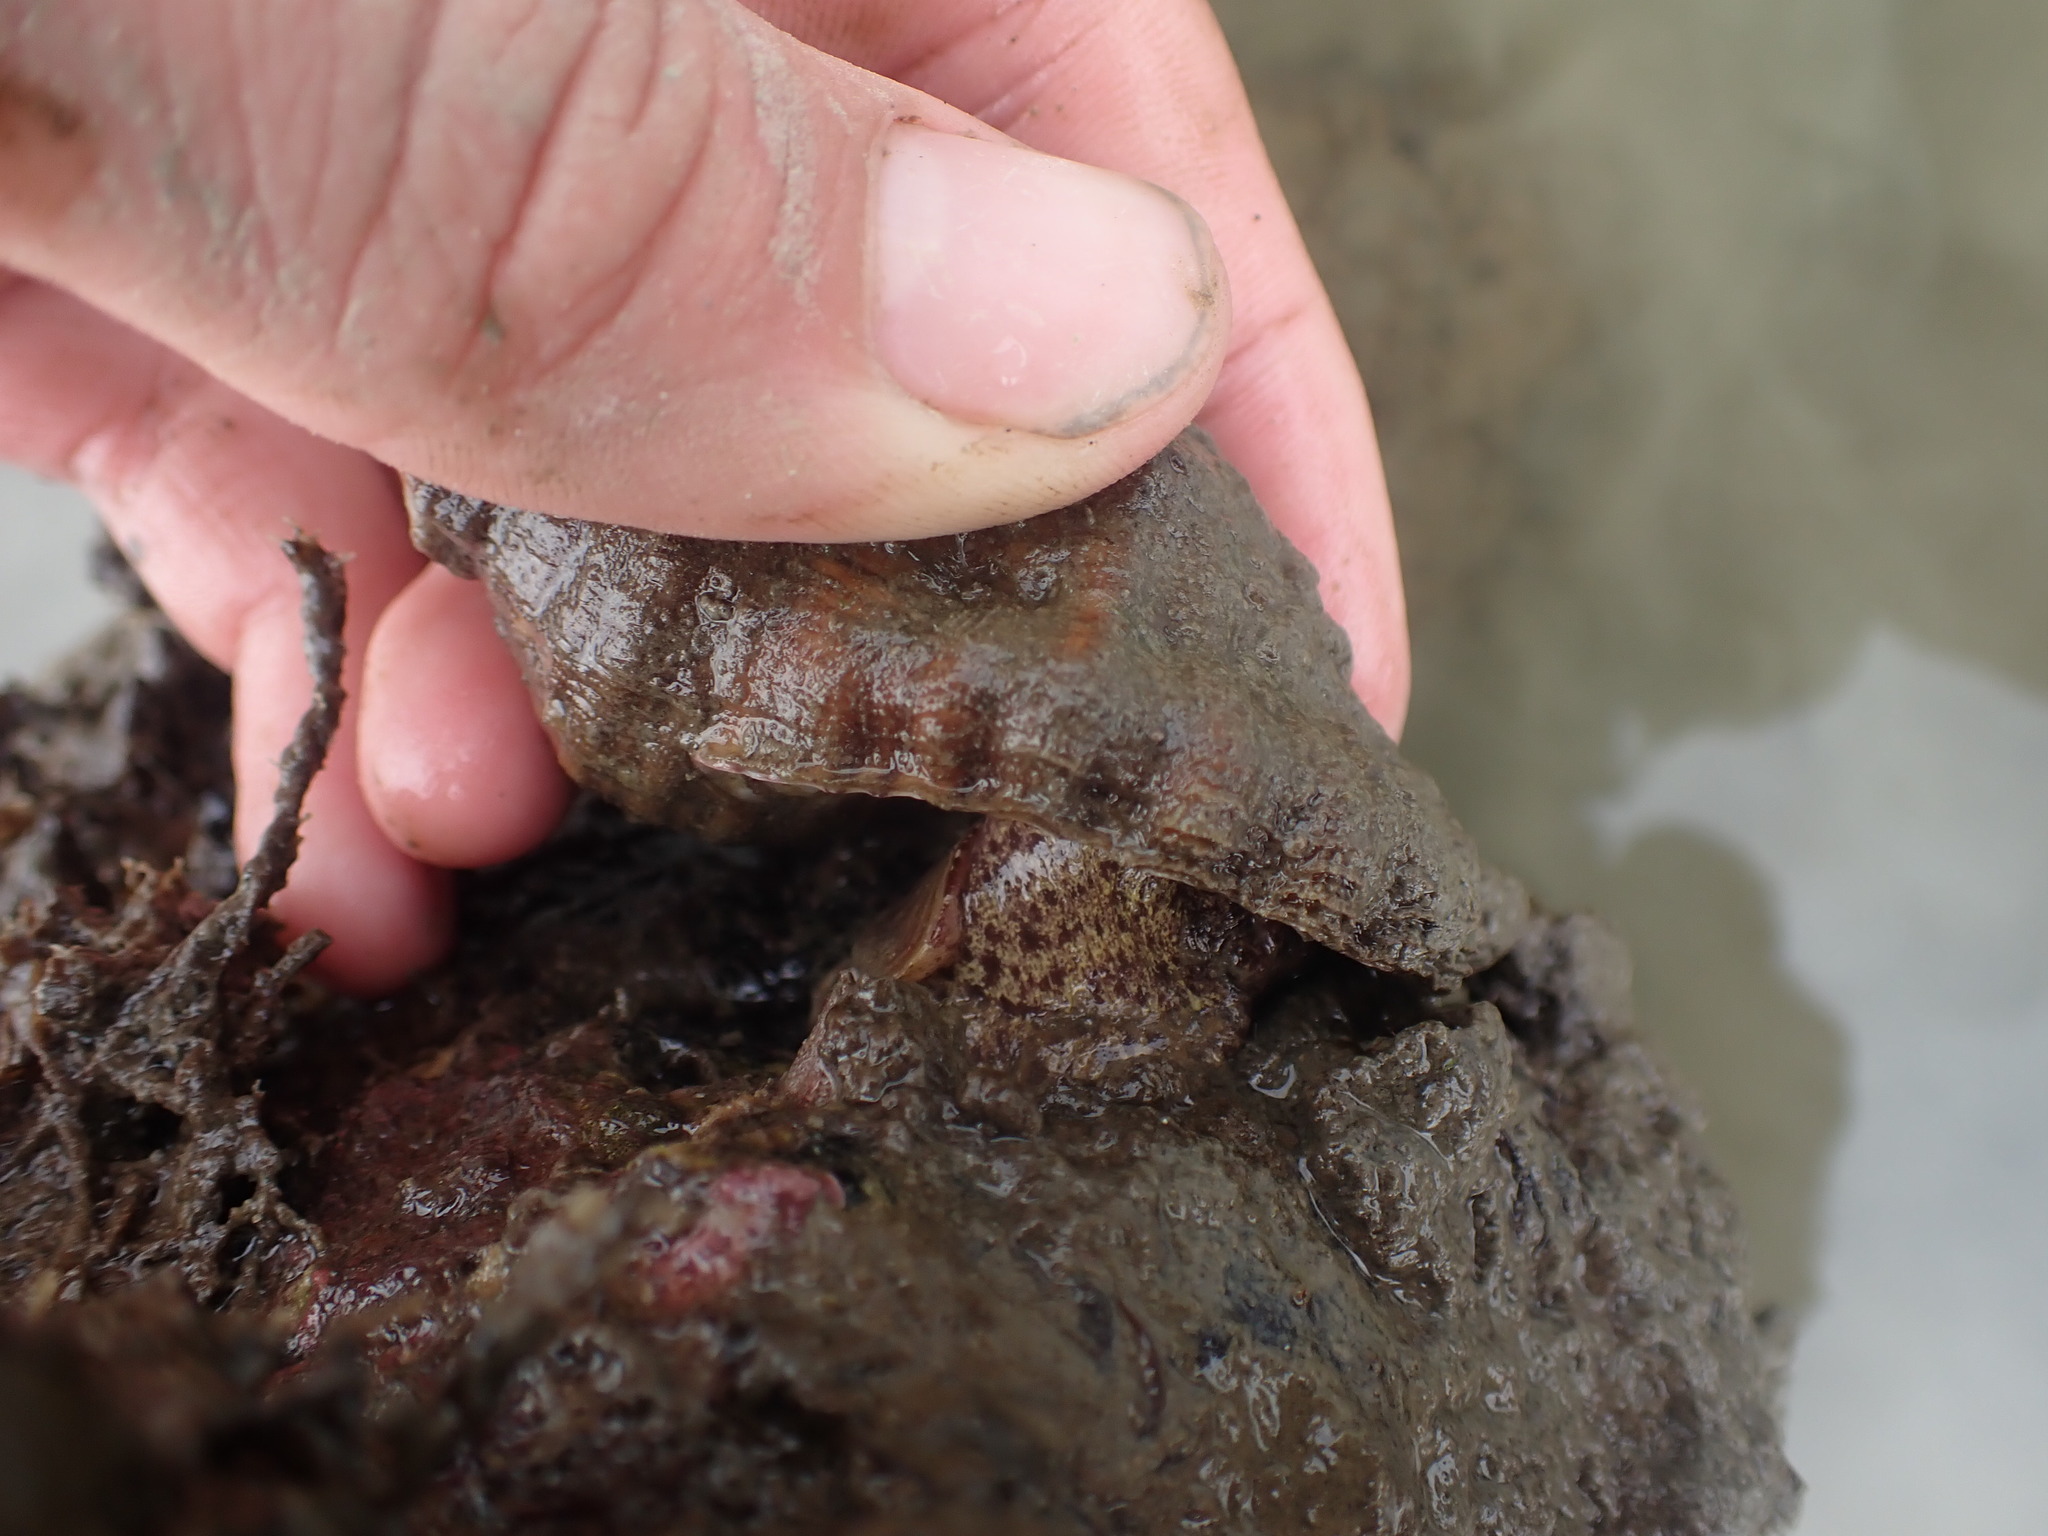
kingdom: Animalia
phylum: Mollusca
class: Gastropoda
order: Littorinimorpha
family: Cymatiidae
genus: Cabestana
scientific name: Cabestana spengleri
